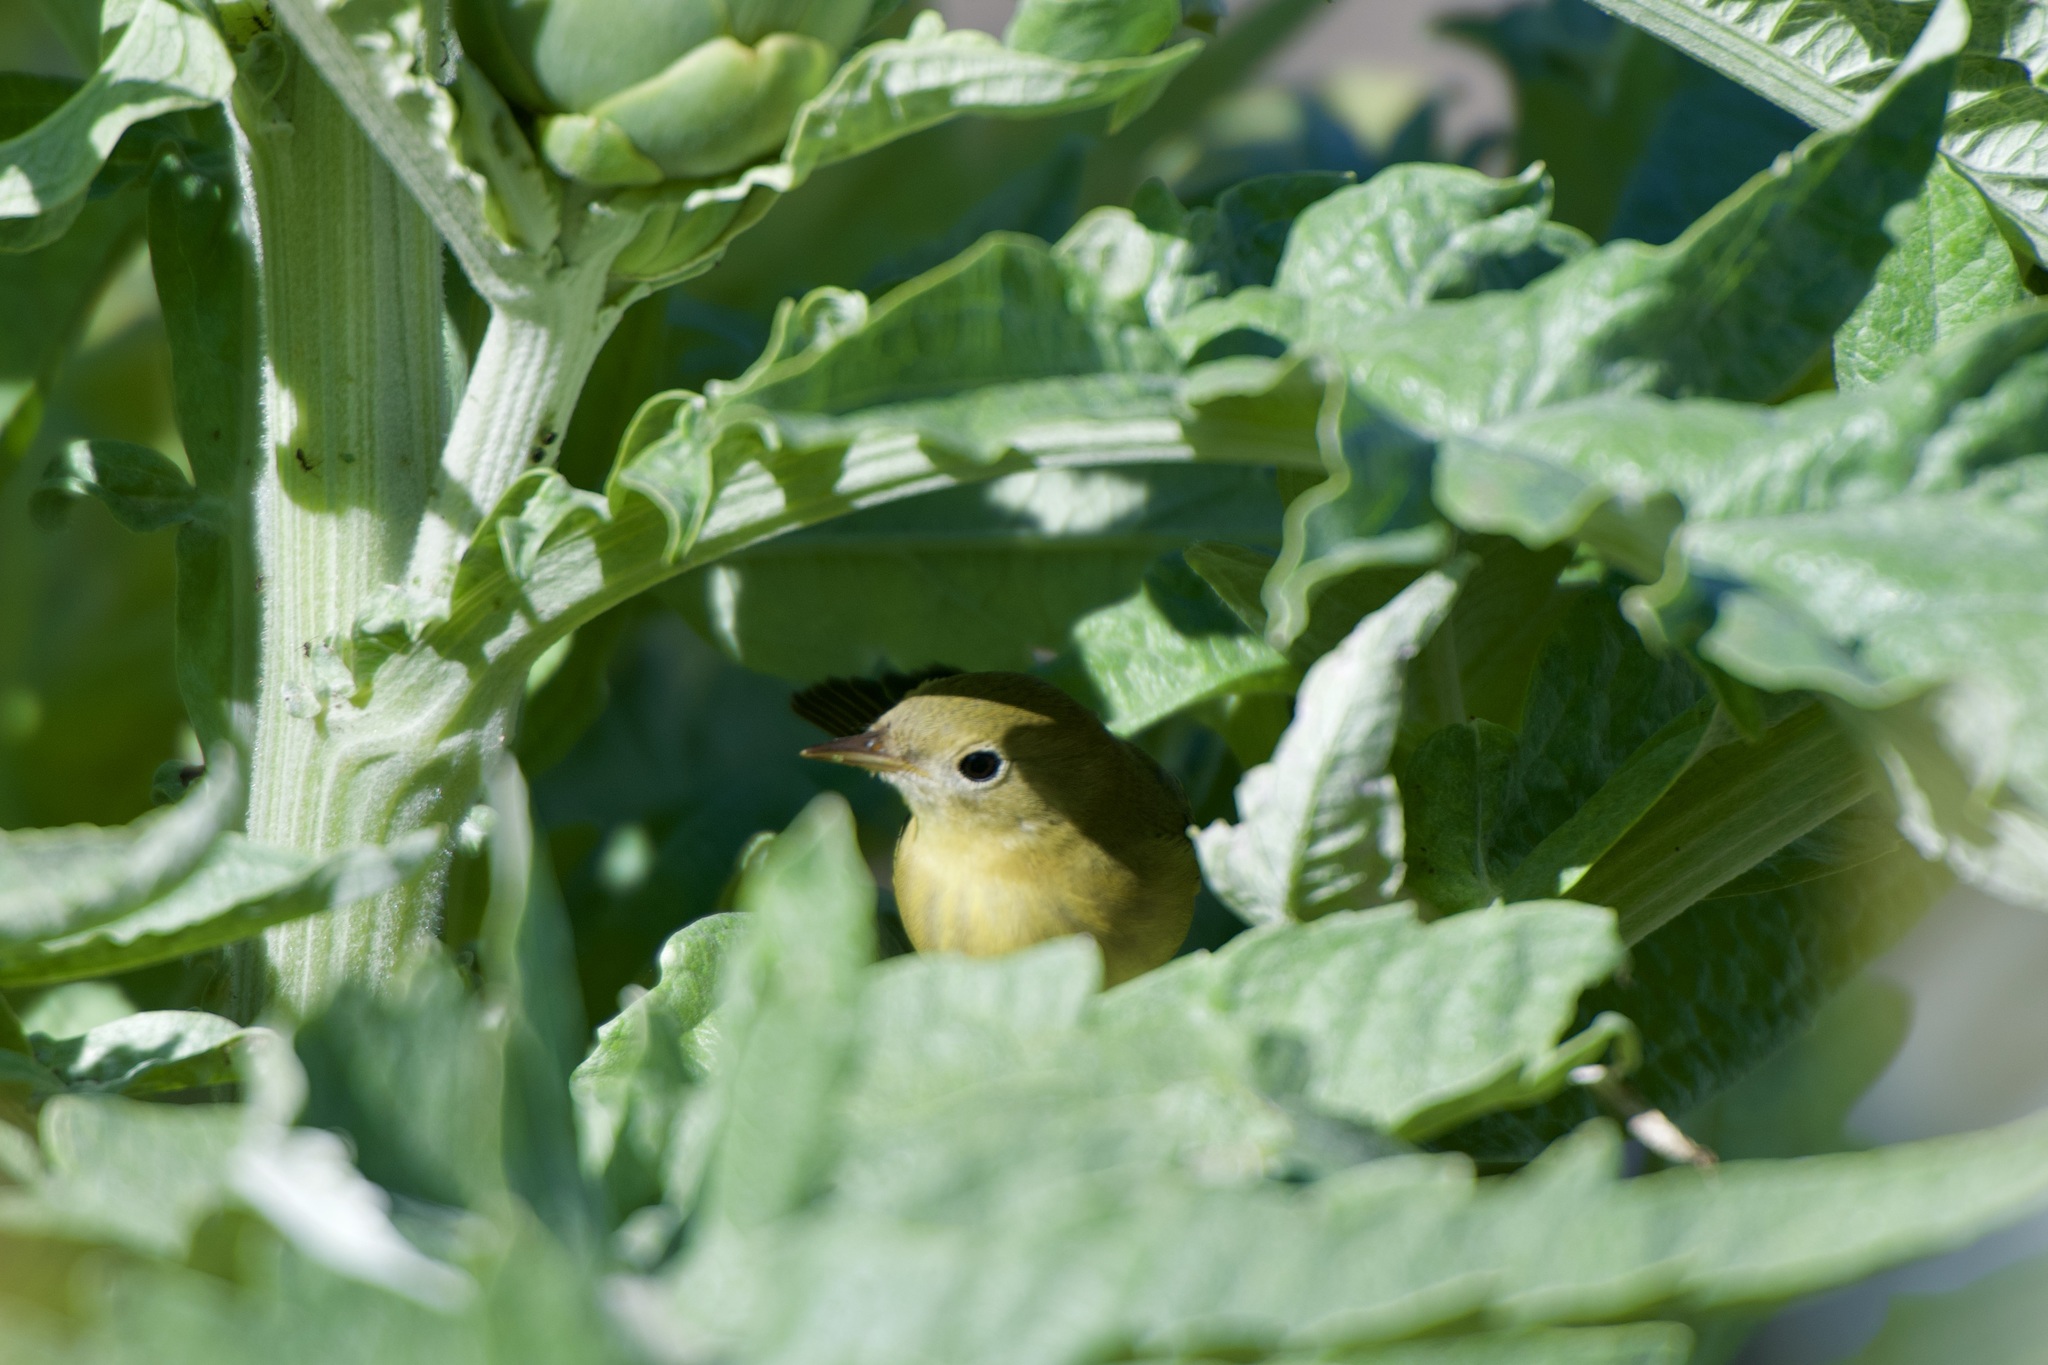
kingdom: Animalia
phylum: Chordata
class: Aves
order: Passeriformes
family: Parulidae
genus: Setophaga
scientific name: Setophaga petechia
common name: Yellow warbler
